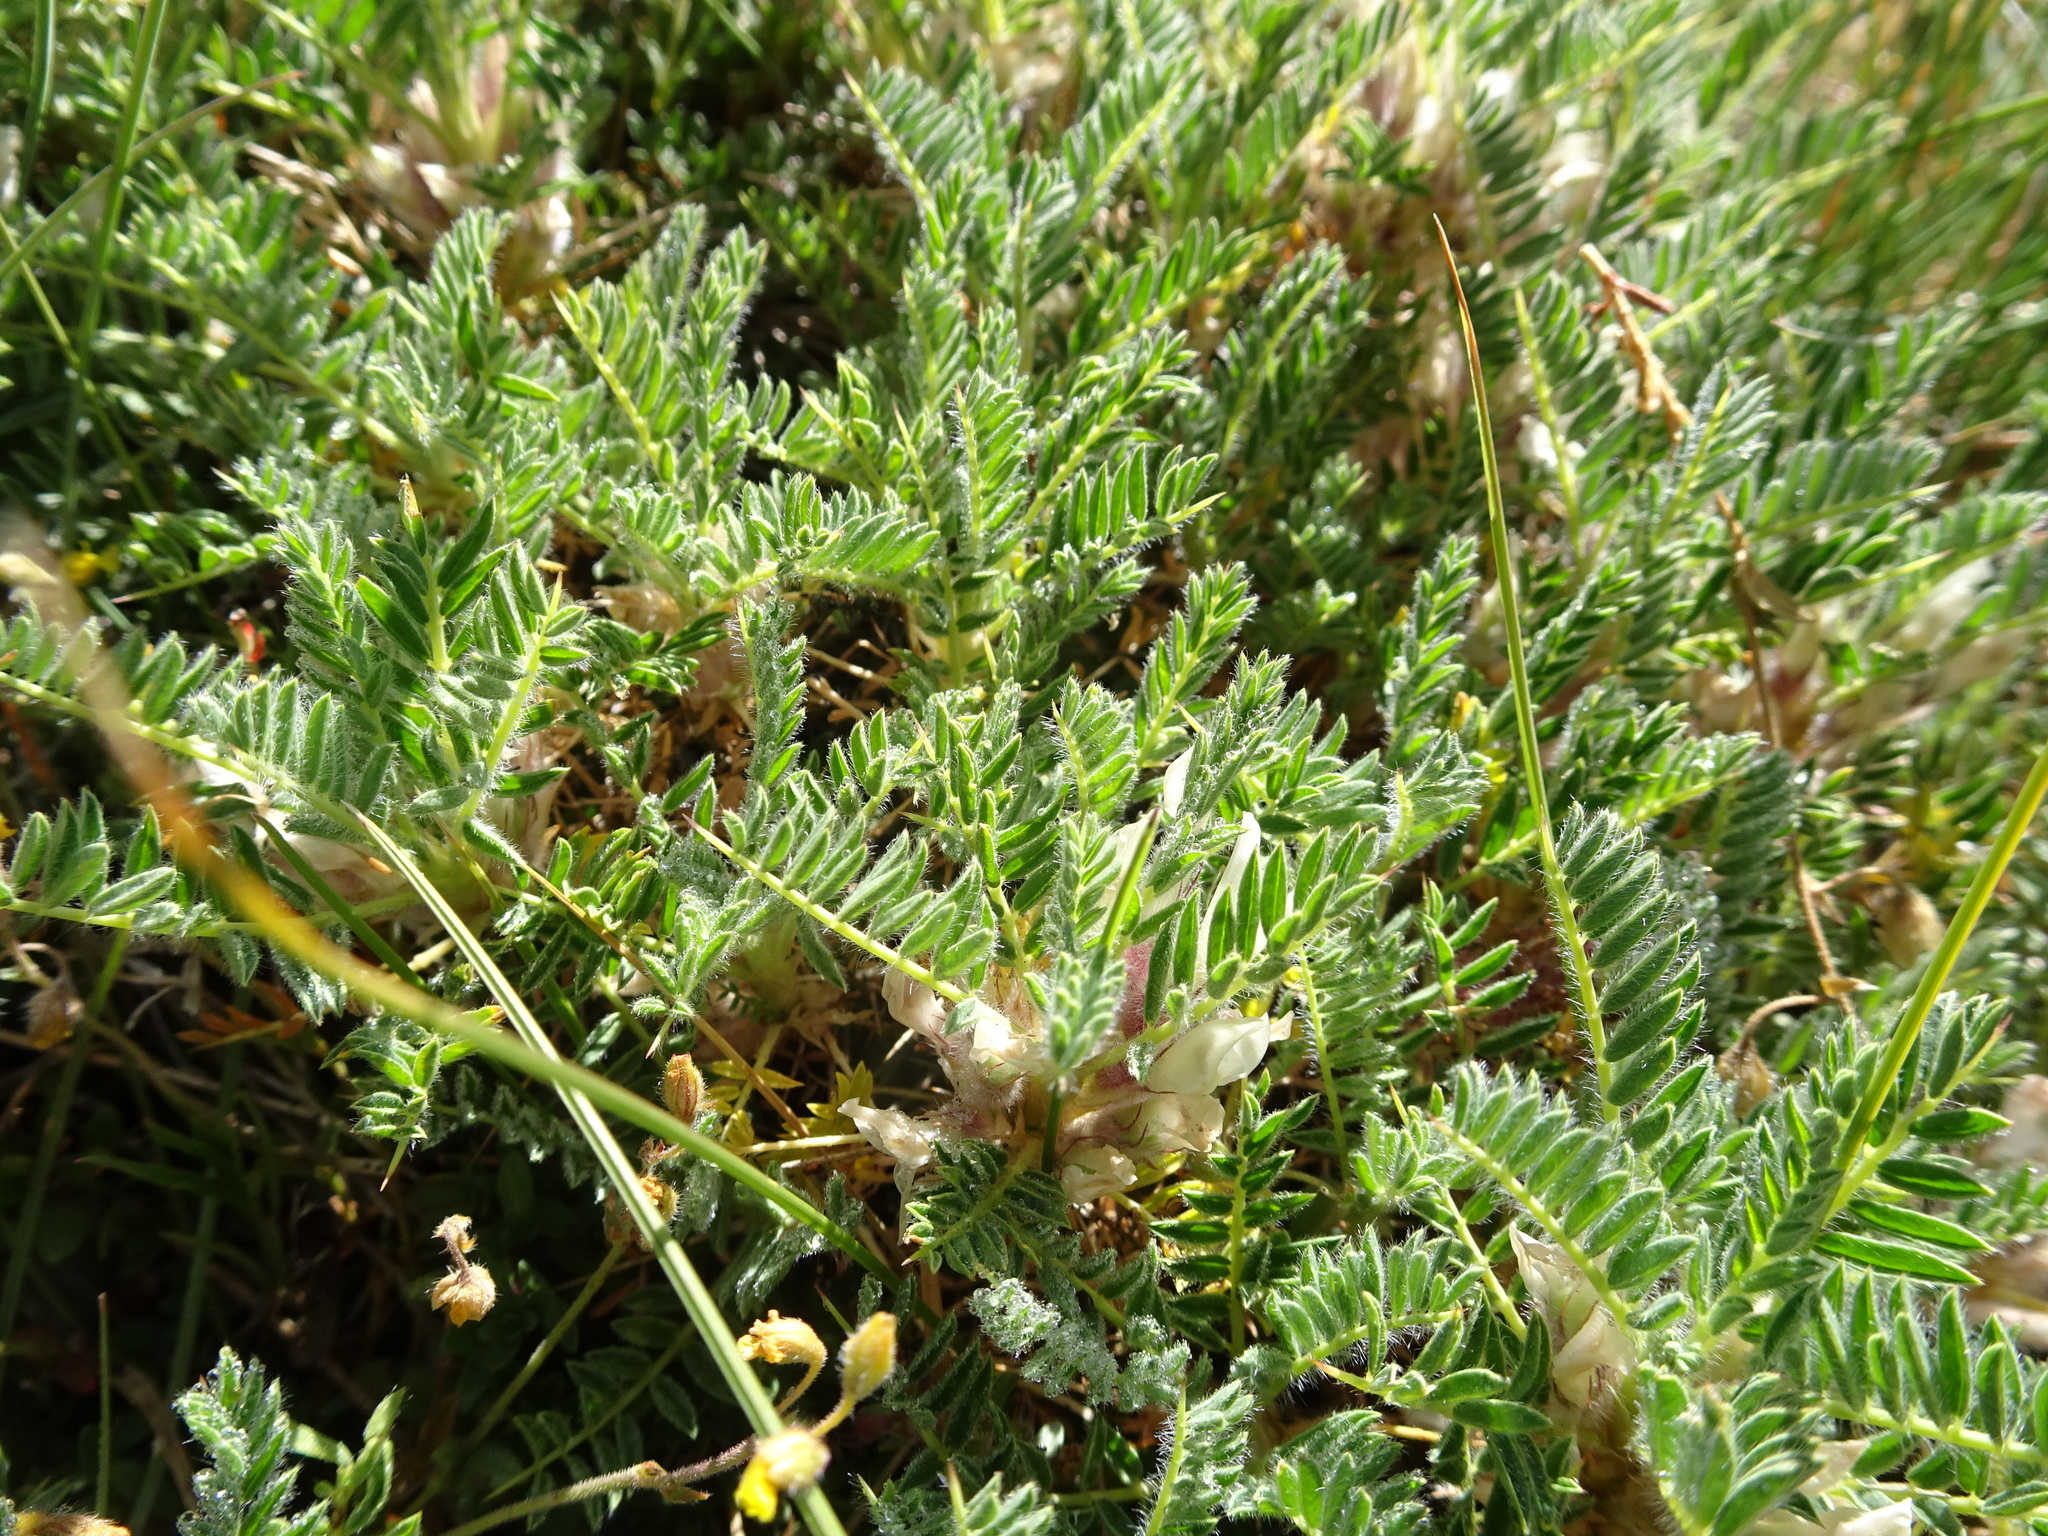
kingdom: Plantae
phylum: Tracheophyta
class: Magnoliopsida
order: Fabales
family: Fabaceae
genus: Astragalus
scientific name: Astragalus sempervirens
